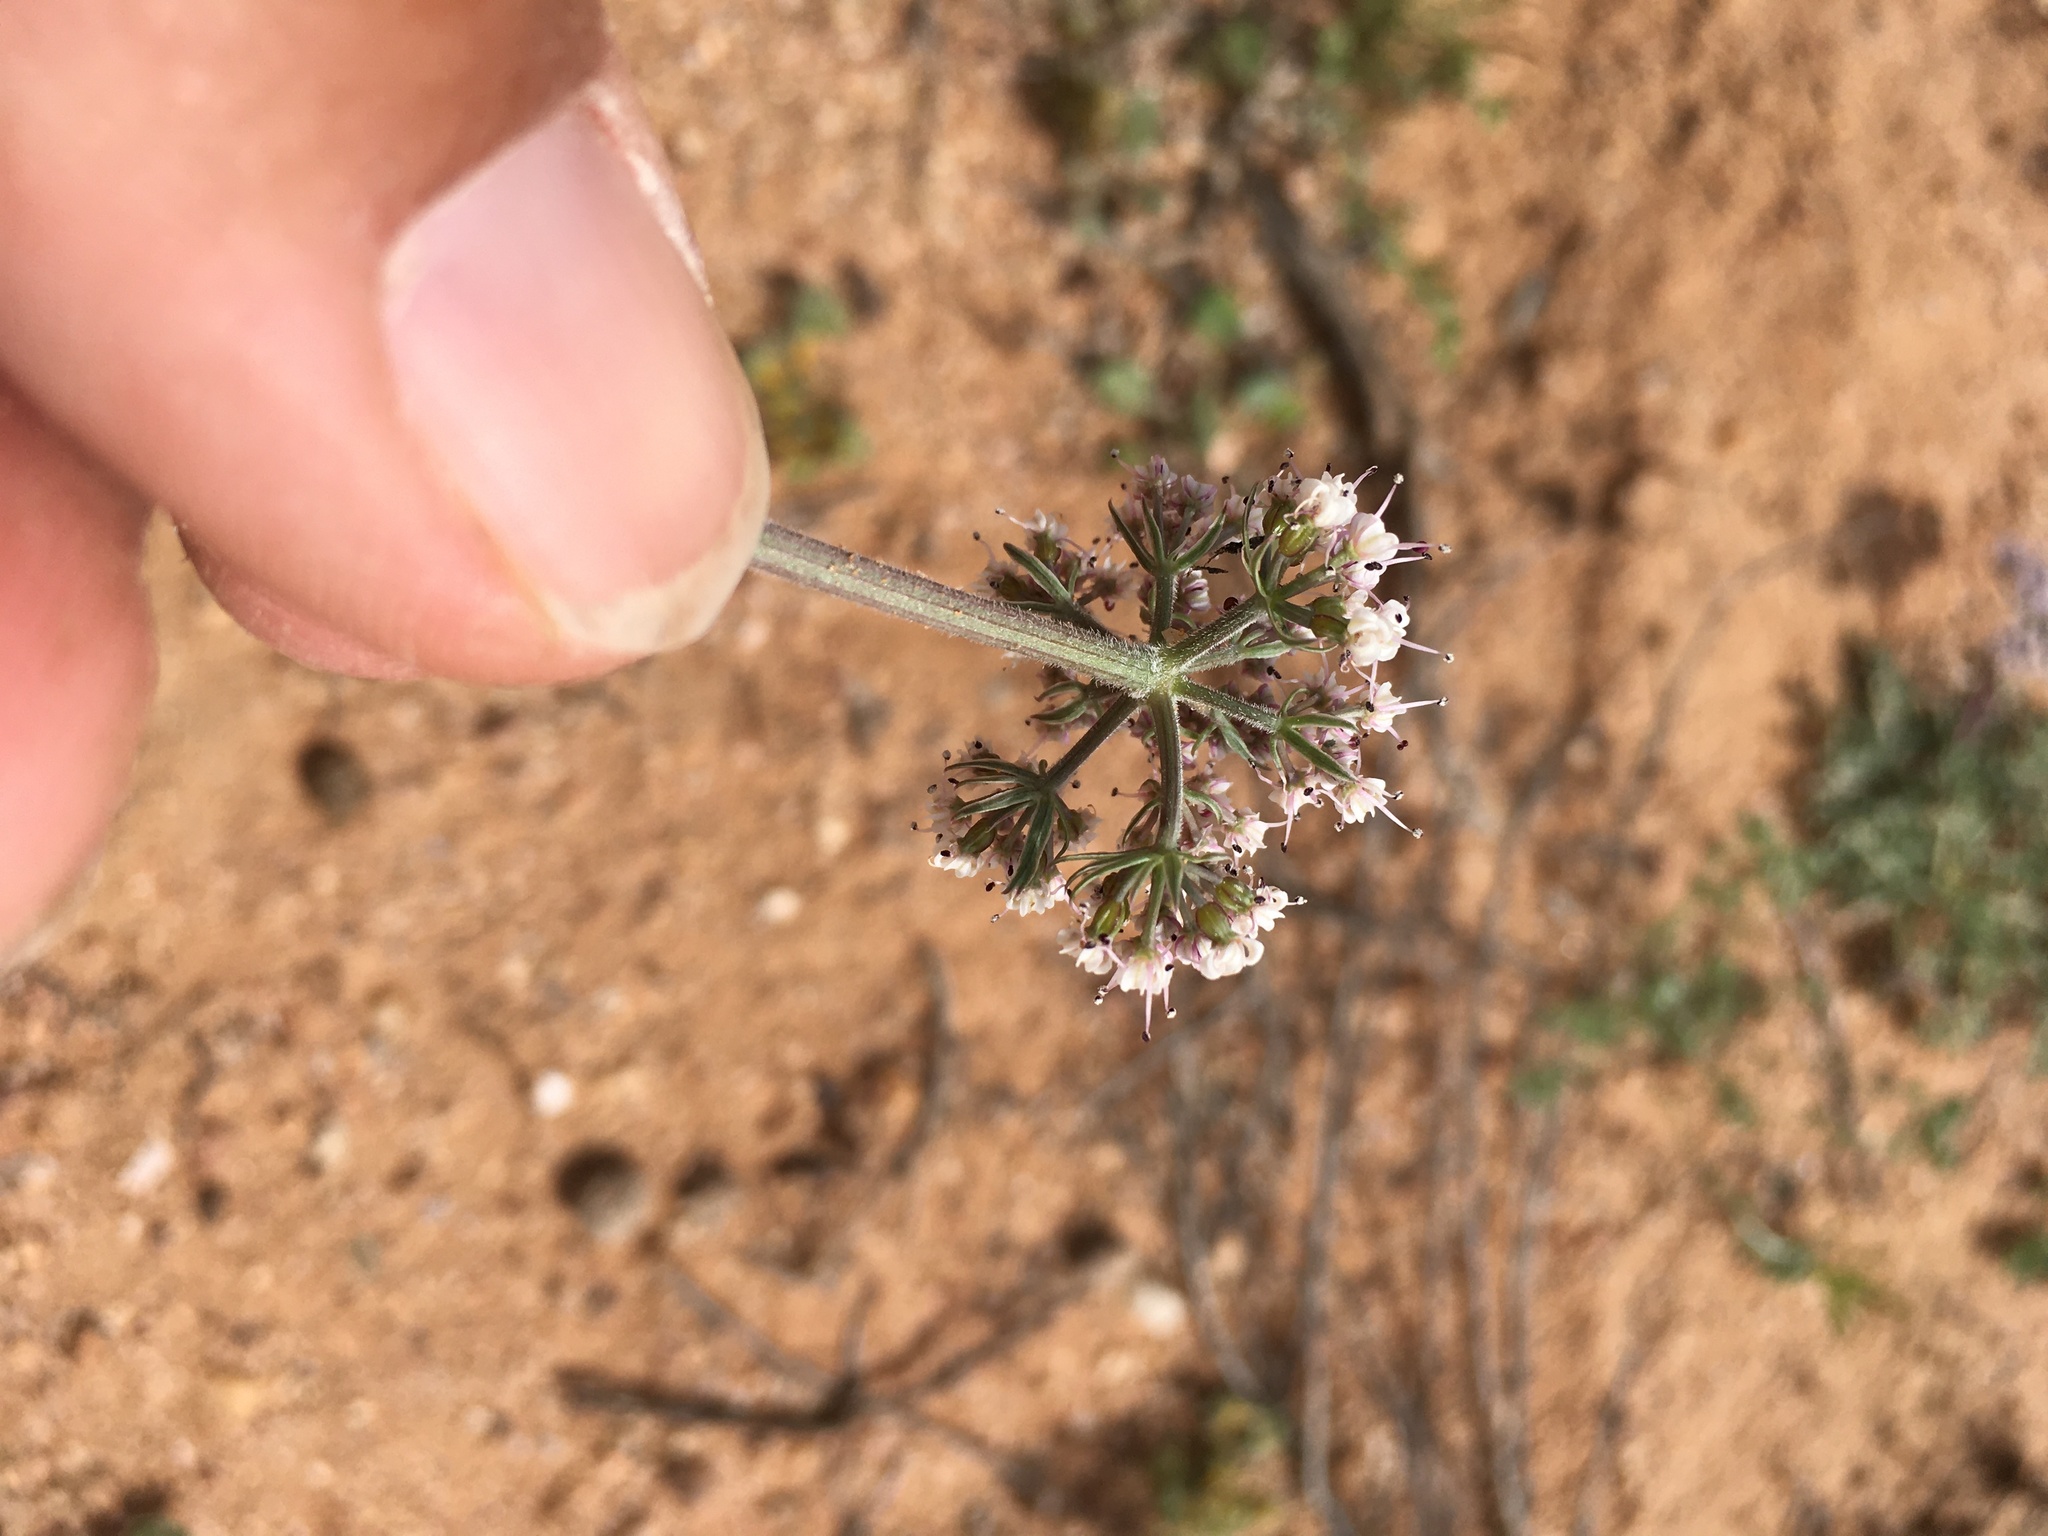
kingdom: Plantae
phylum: Tracheophyta
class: Magnoliopsida
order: Apiales
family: Apiaceae
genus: Lomatium
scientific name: Lomatium nevadense
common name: Nevada lomatium
